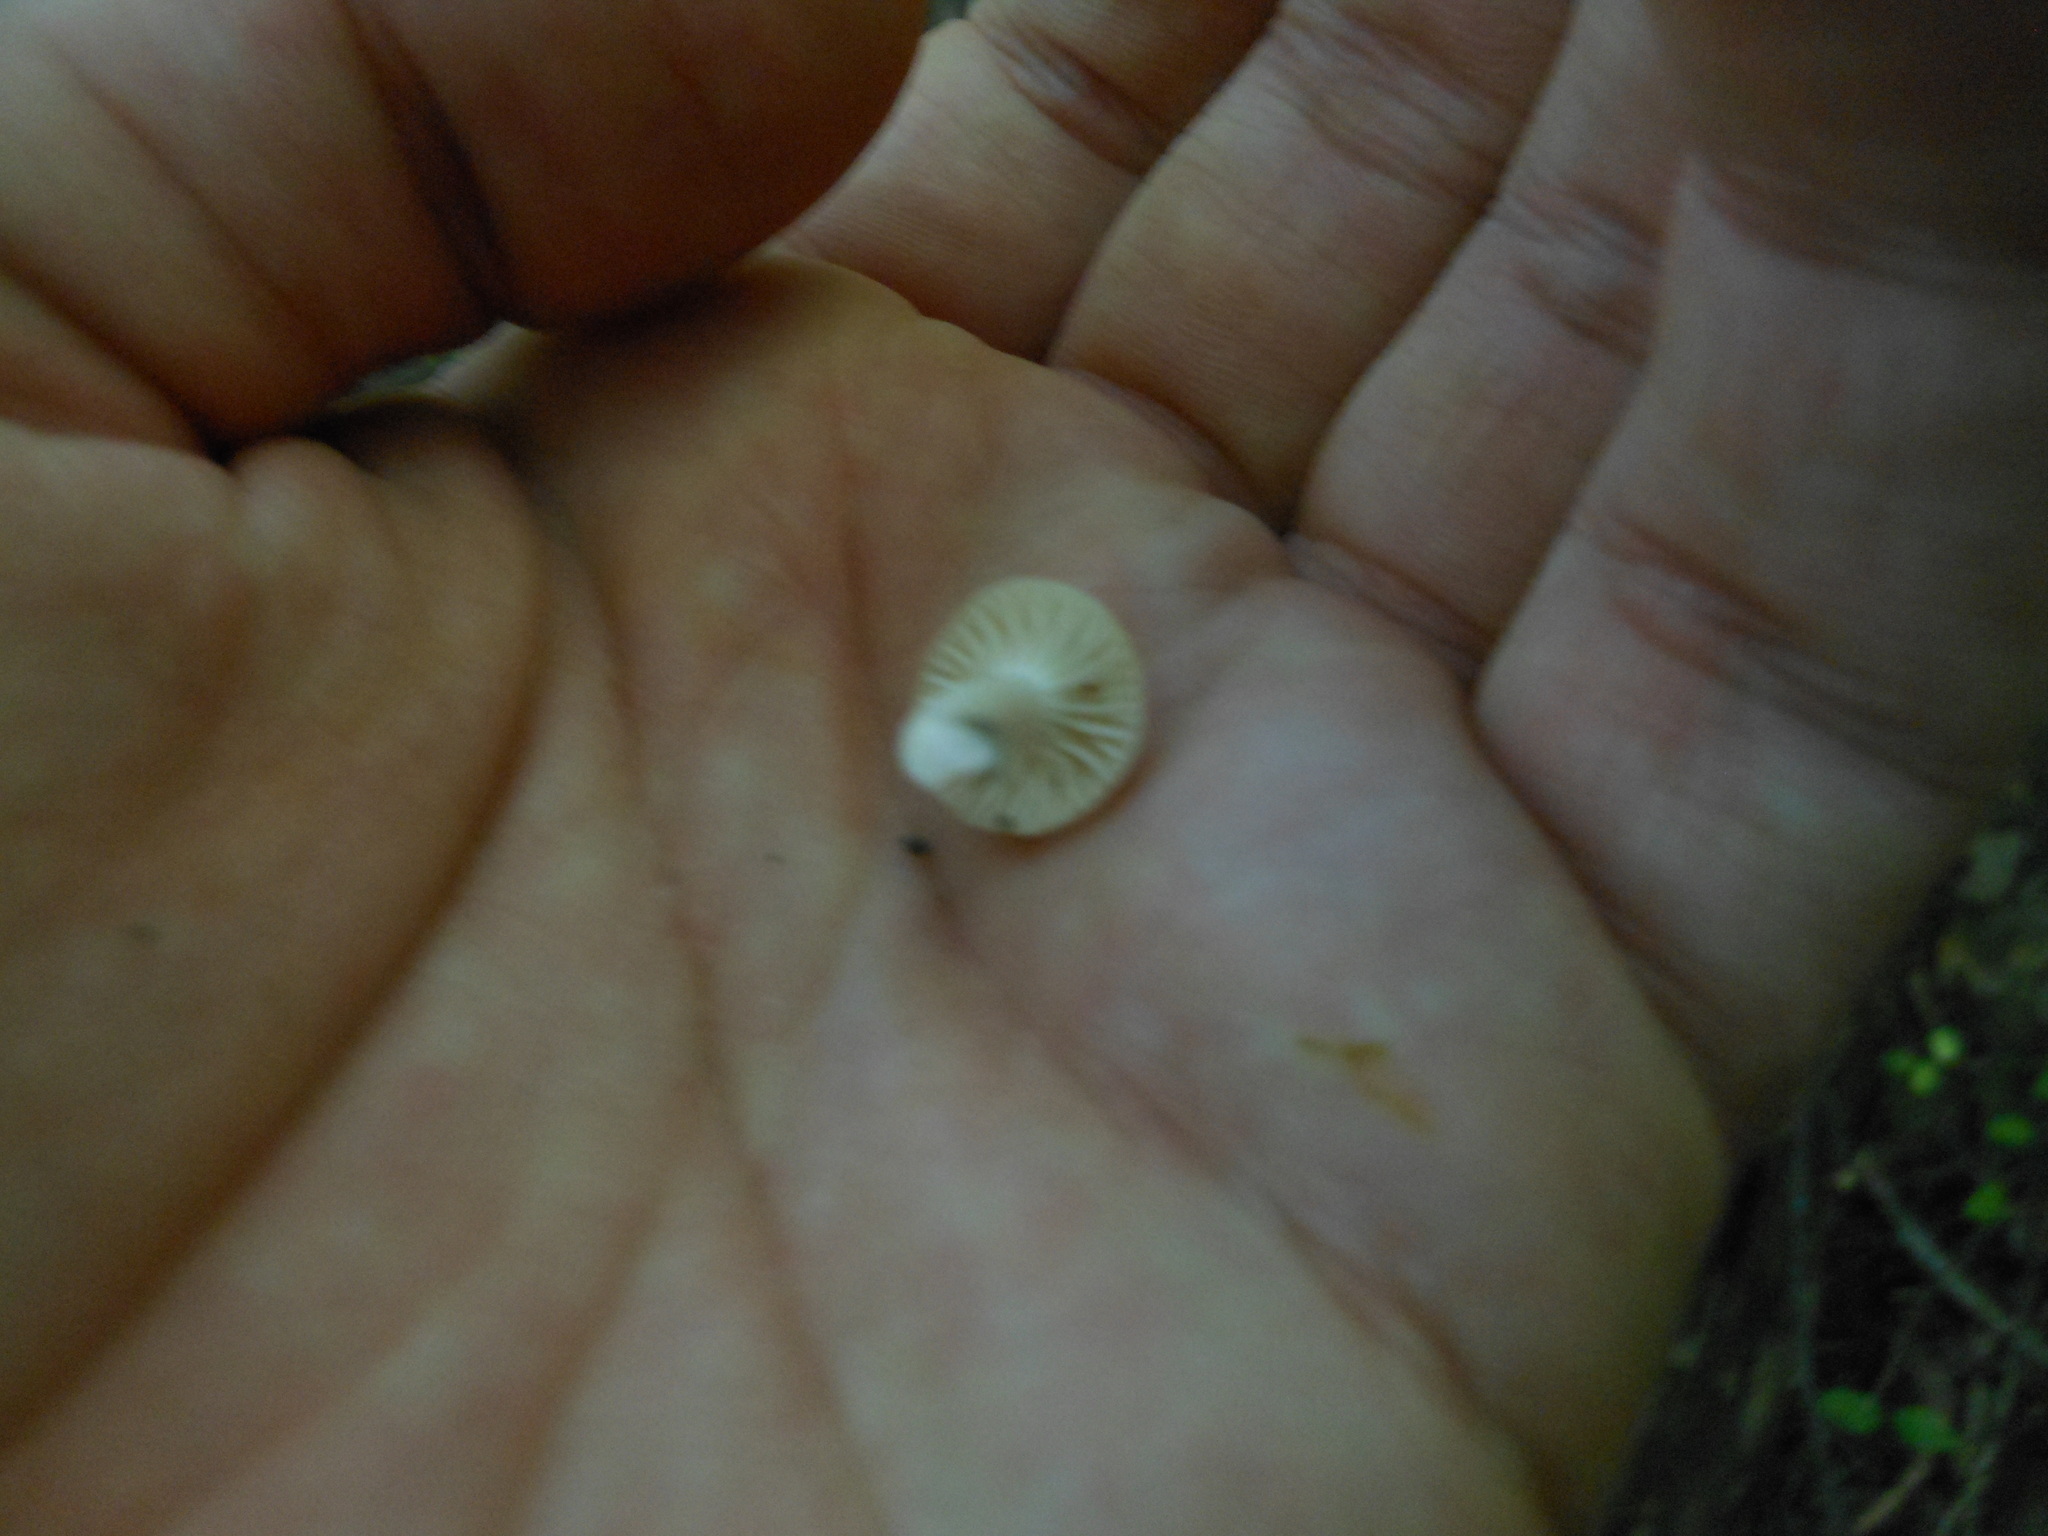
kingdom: Fungi
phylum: Basidiomycota
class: Agaricomycetes
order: Agaricales
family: Hygrophoraceae
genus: Cuphophyllus
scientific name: Cuphophyllus virgineus
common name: Snowy waxcap
